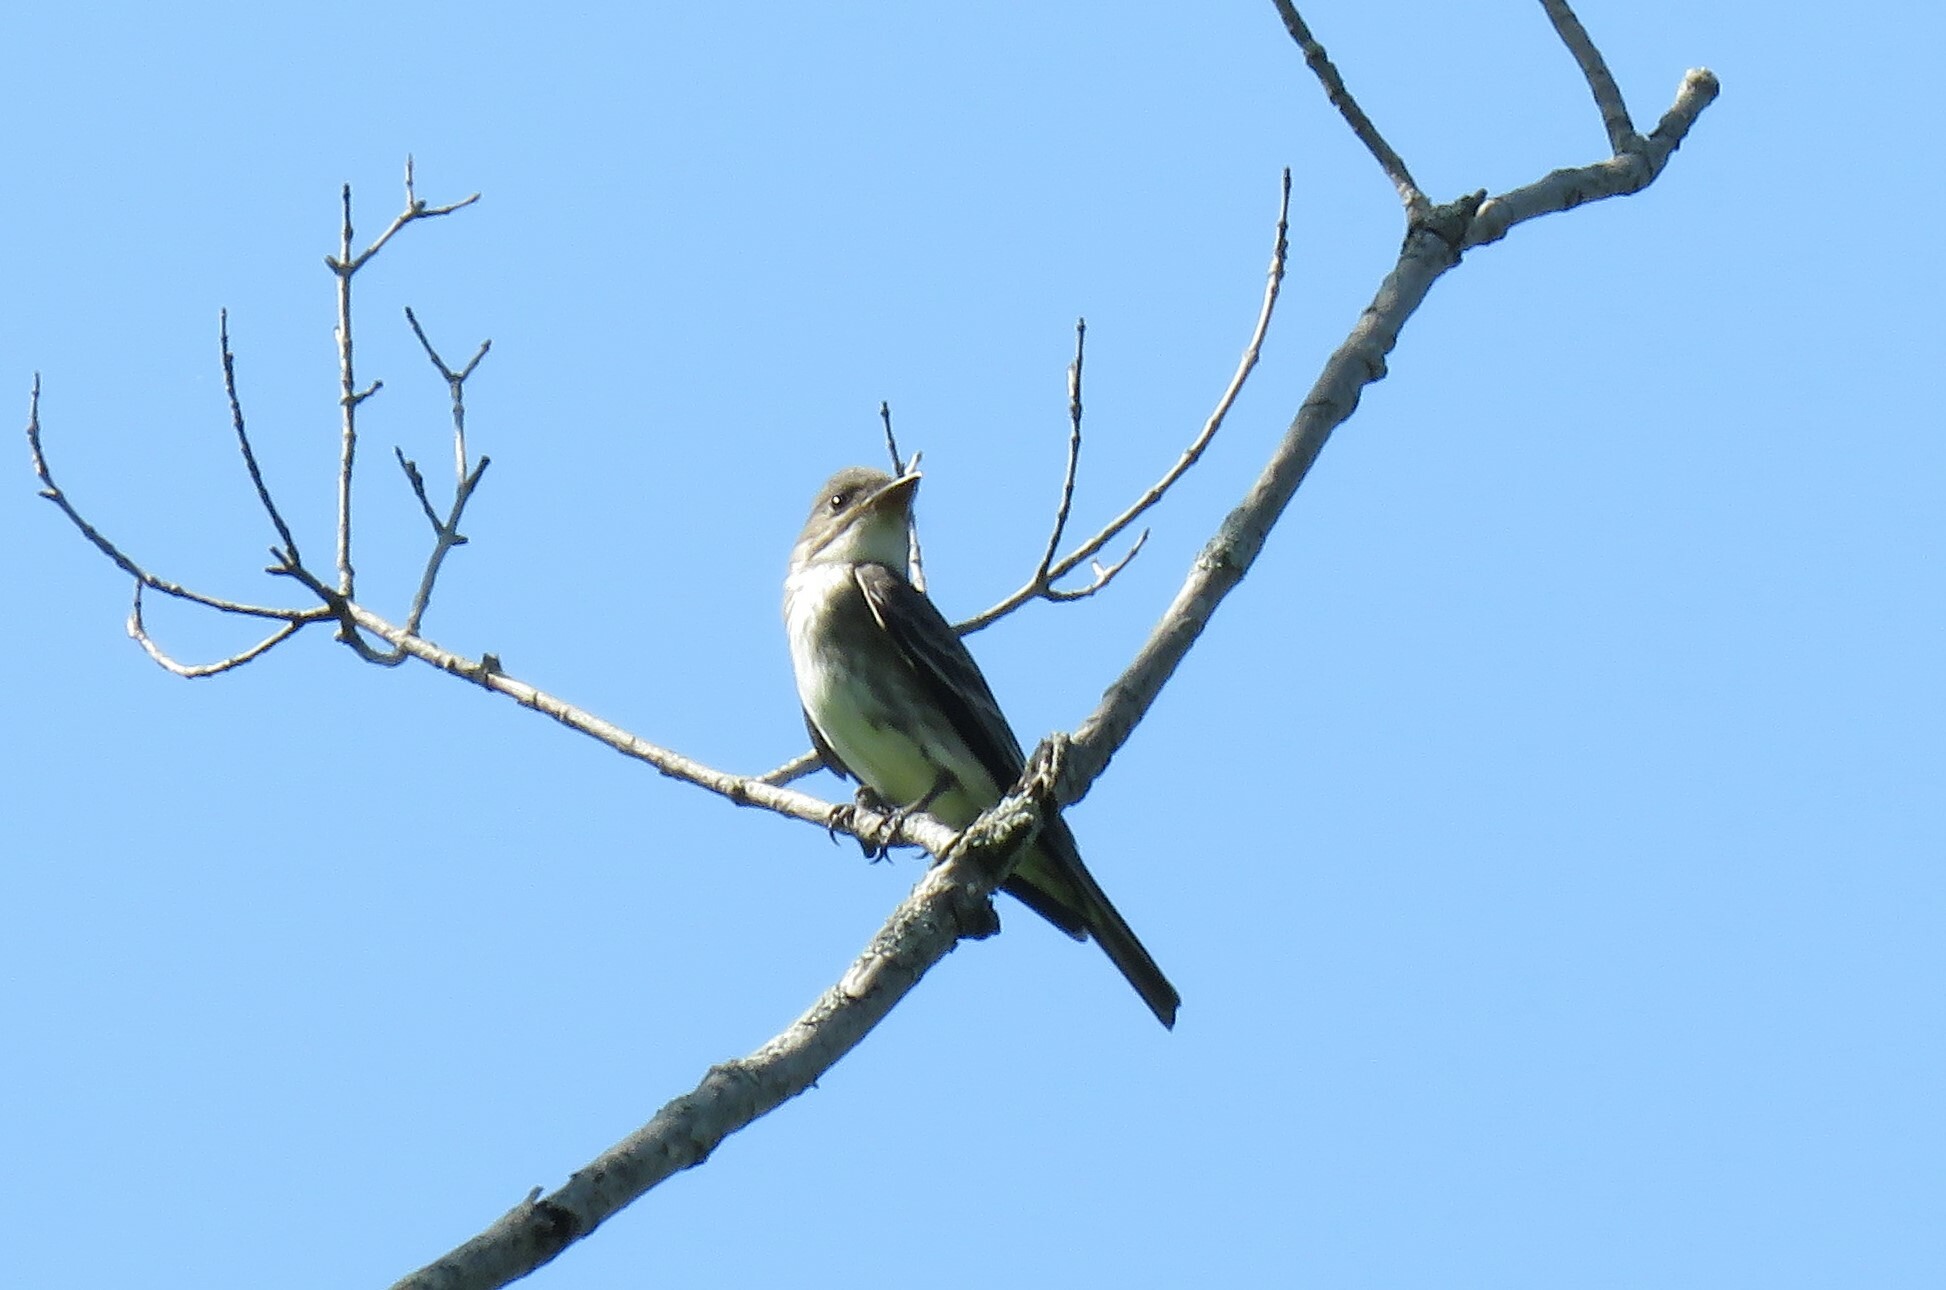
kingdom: Animalia
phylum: Chordata
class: Aves
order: Passeriformes
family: Tyrannidae
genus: Contopus
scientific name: Contopus cooperi
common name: Olive-sided flycatcher
